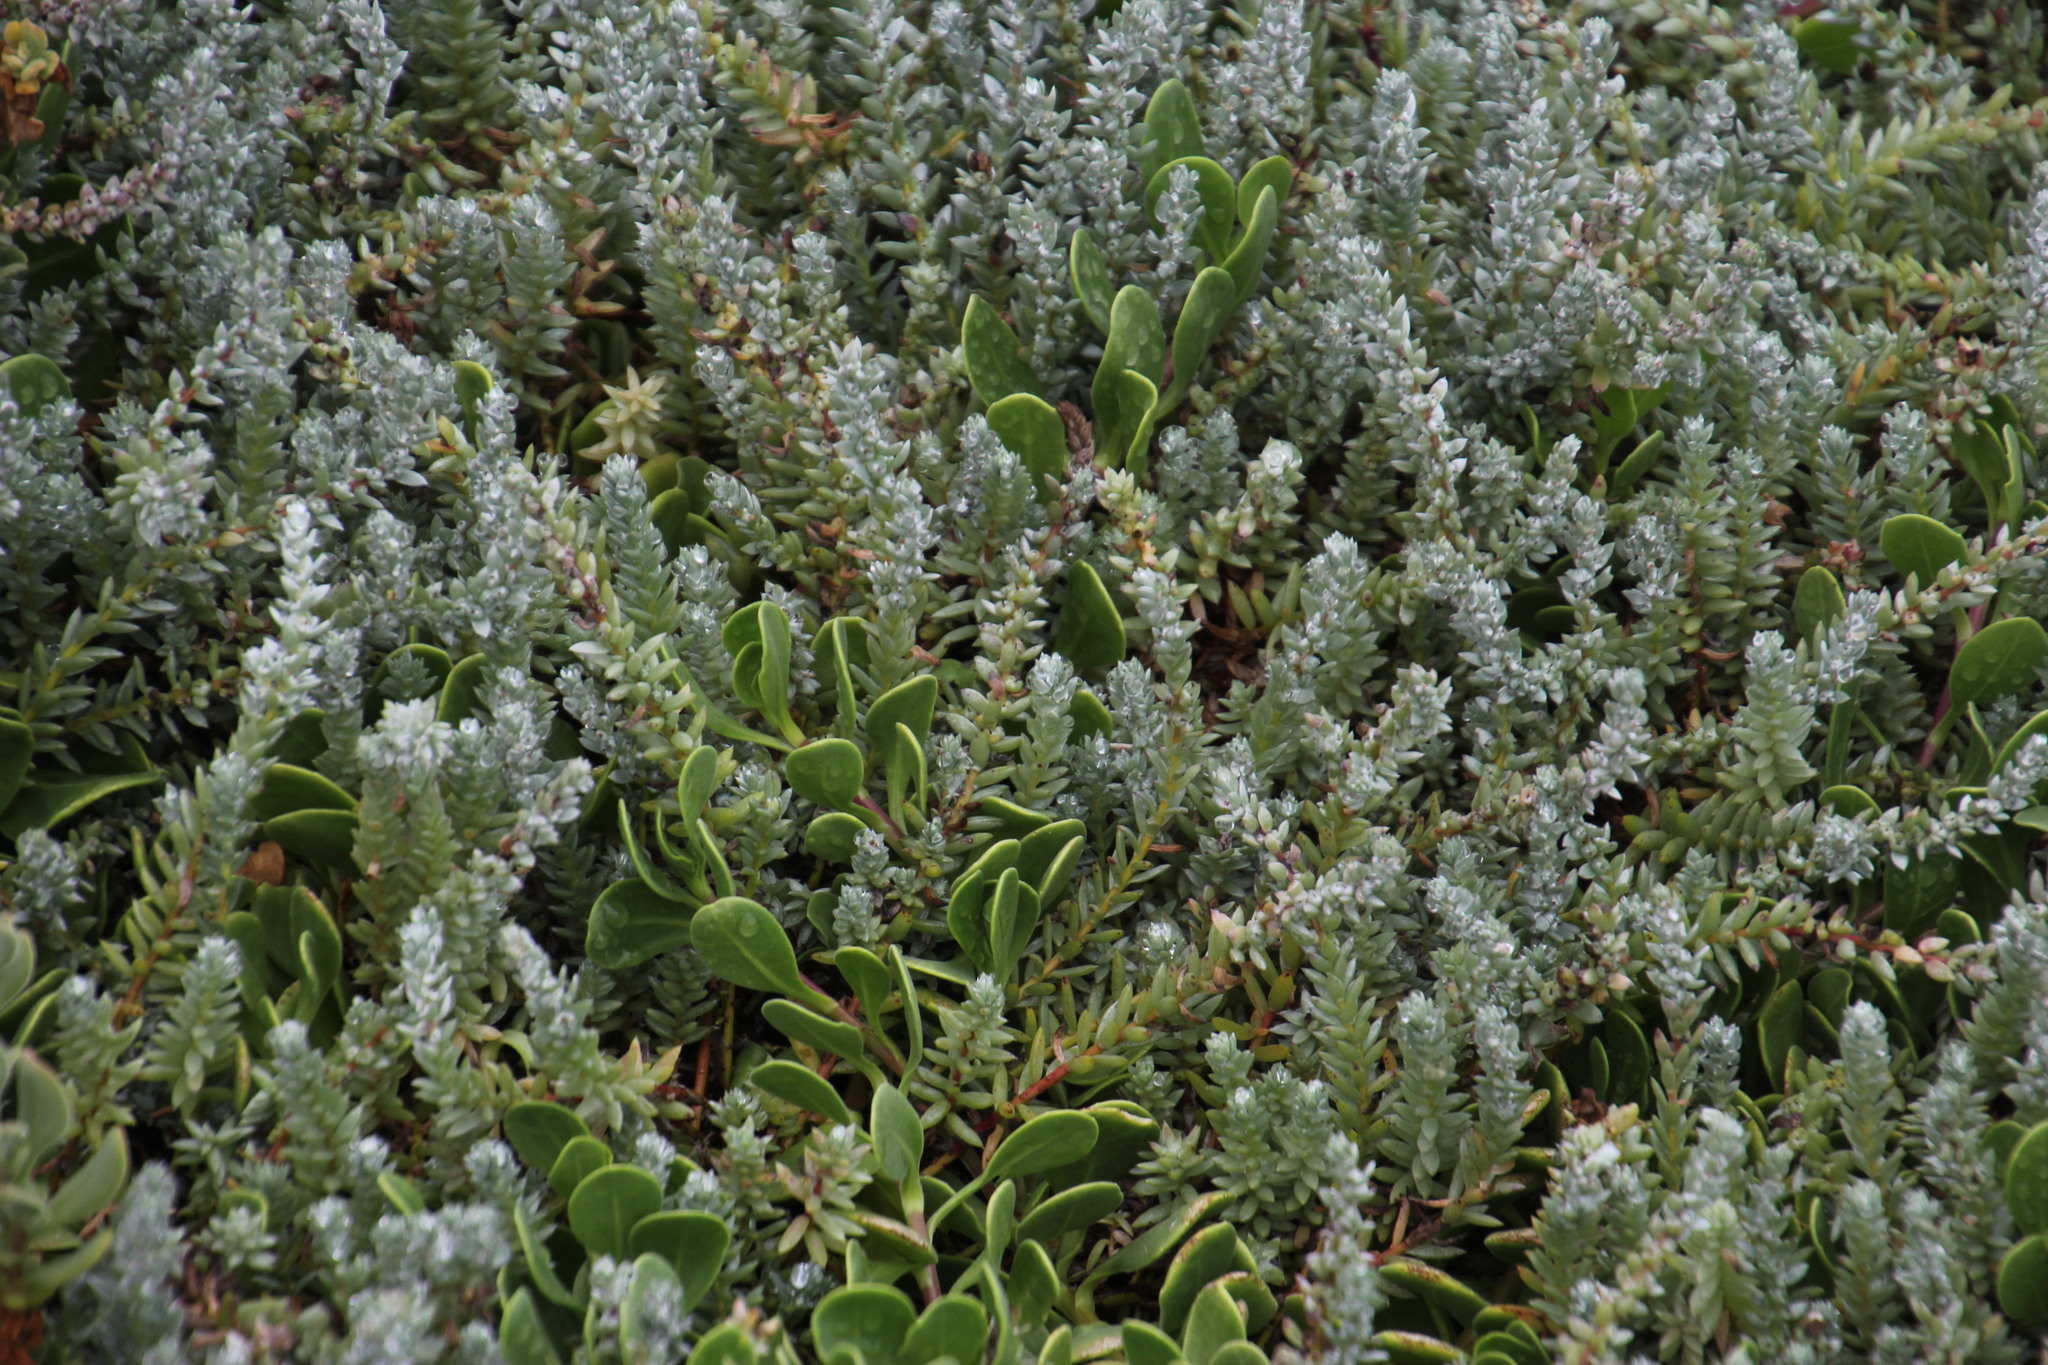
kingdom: Plantae
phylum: Tracheophyta
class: Magnoliopsida
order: Caryophyllales
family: Amaranthaceae
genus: Chenolea
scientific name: Chenolea diffusa
